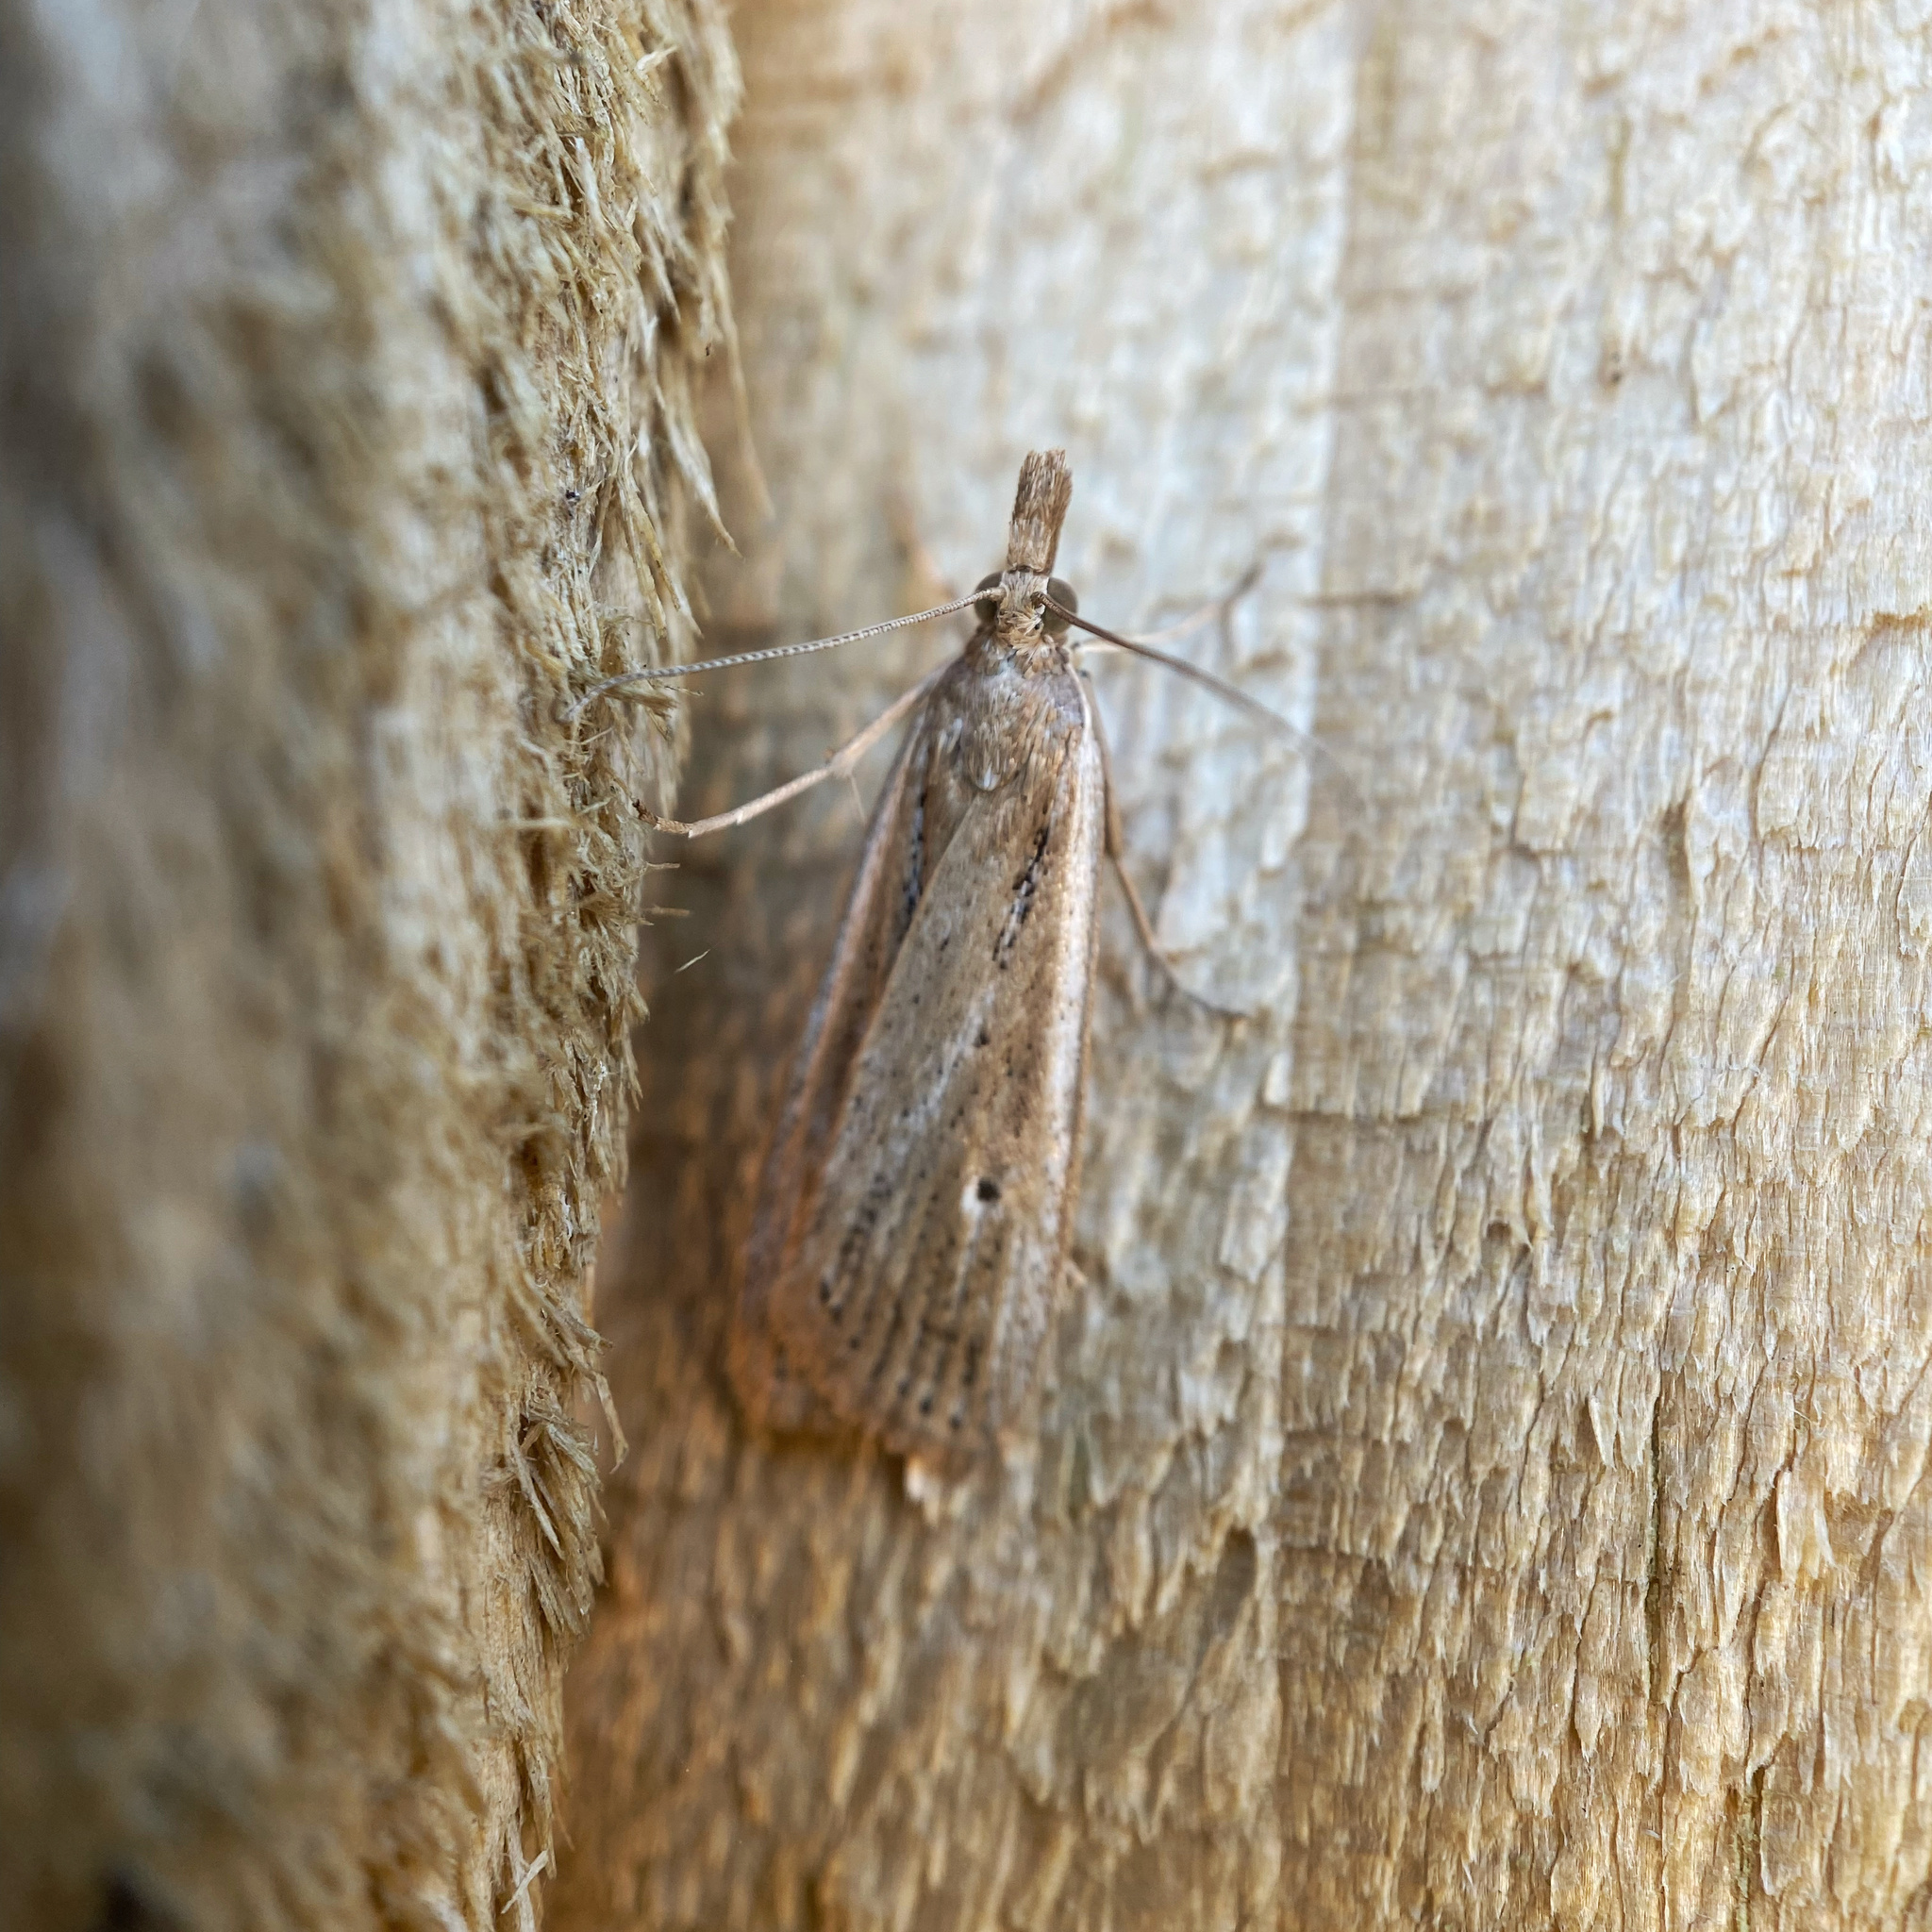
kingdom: Animalia
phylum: Arthropoda
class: Insecta
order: Lepidoptera
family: Crambidae
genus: Eudonia
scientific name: Eudonia sabulosella
